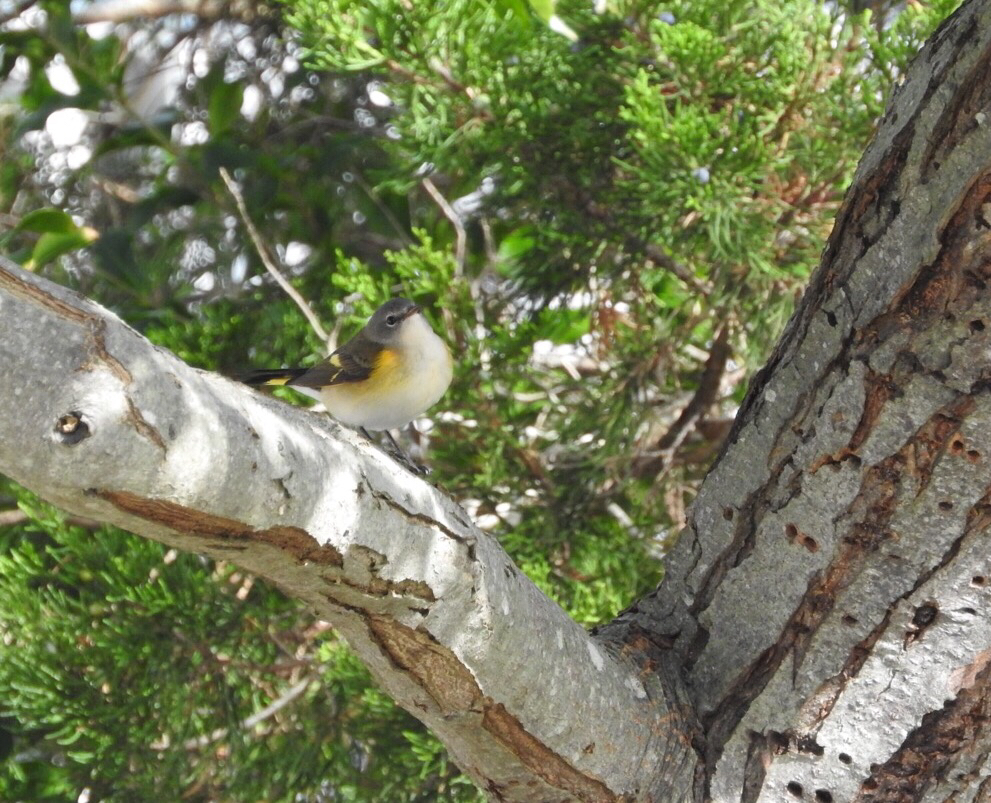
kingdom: Animalia
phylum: Chordata
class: Aves
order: Passeriformes
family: Parulidae
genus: Setophaga
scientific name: Setophaga ruticilla
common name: American redstart
